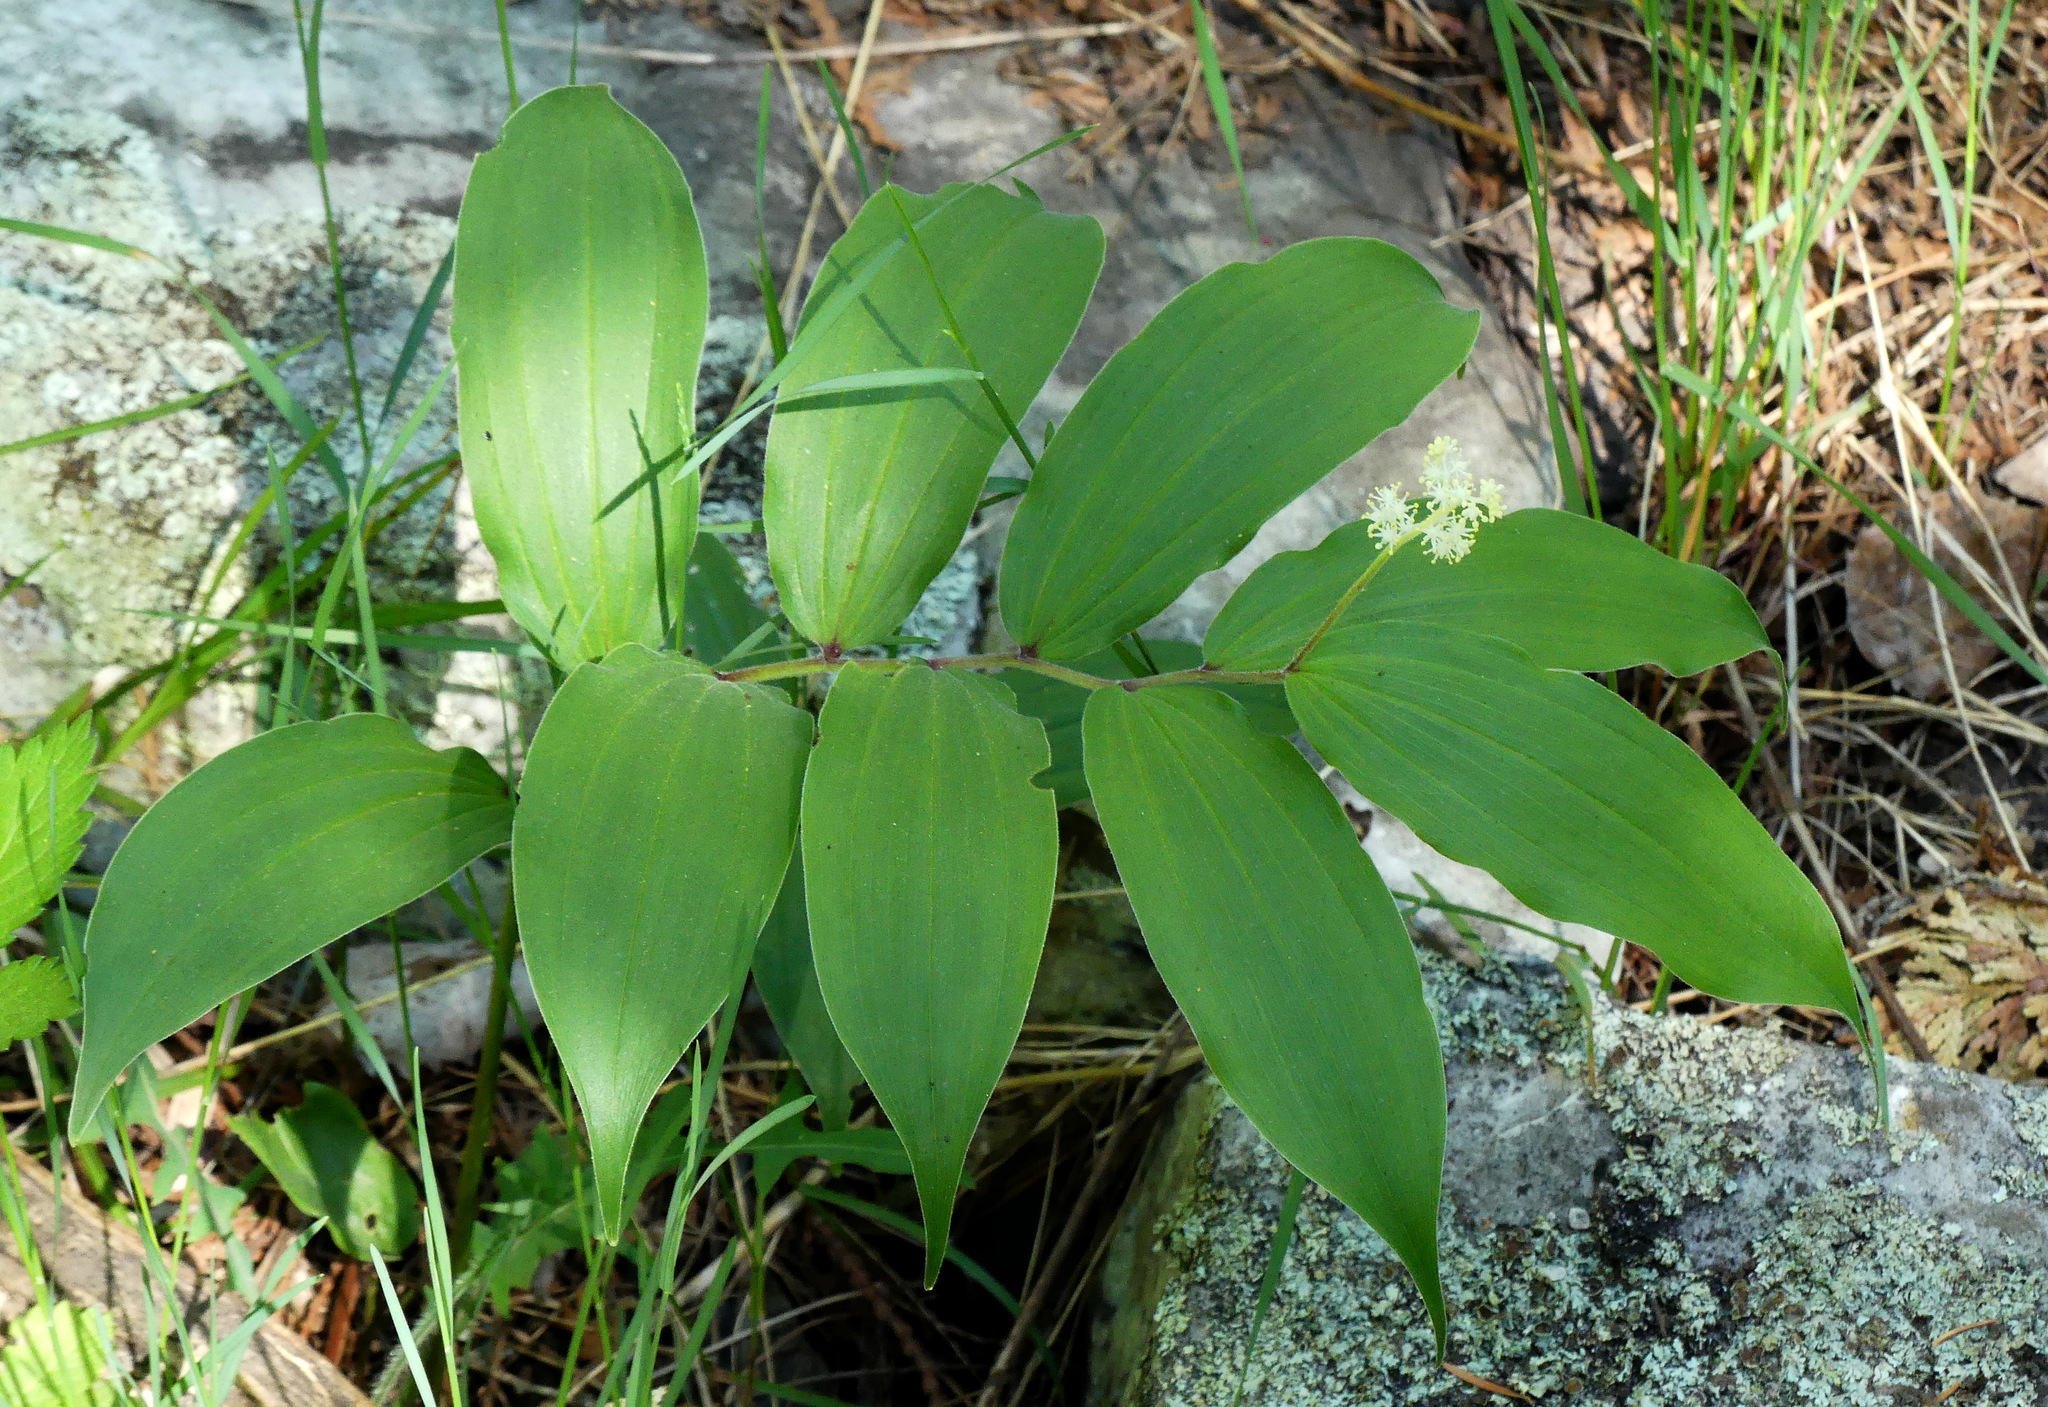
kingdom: Plantae
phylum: Tracheophyta
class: Liliopsida
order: Asparagales
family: Asparagaceae
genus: Maianthemum
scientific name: Maianthemum racemosum
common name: False spikenard
